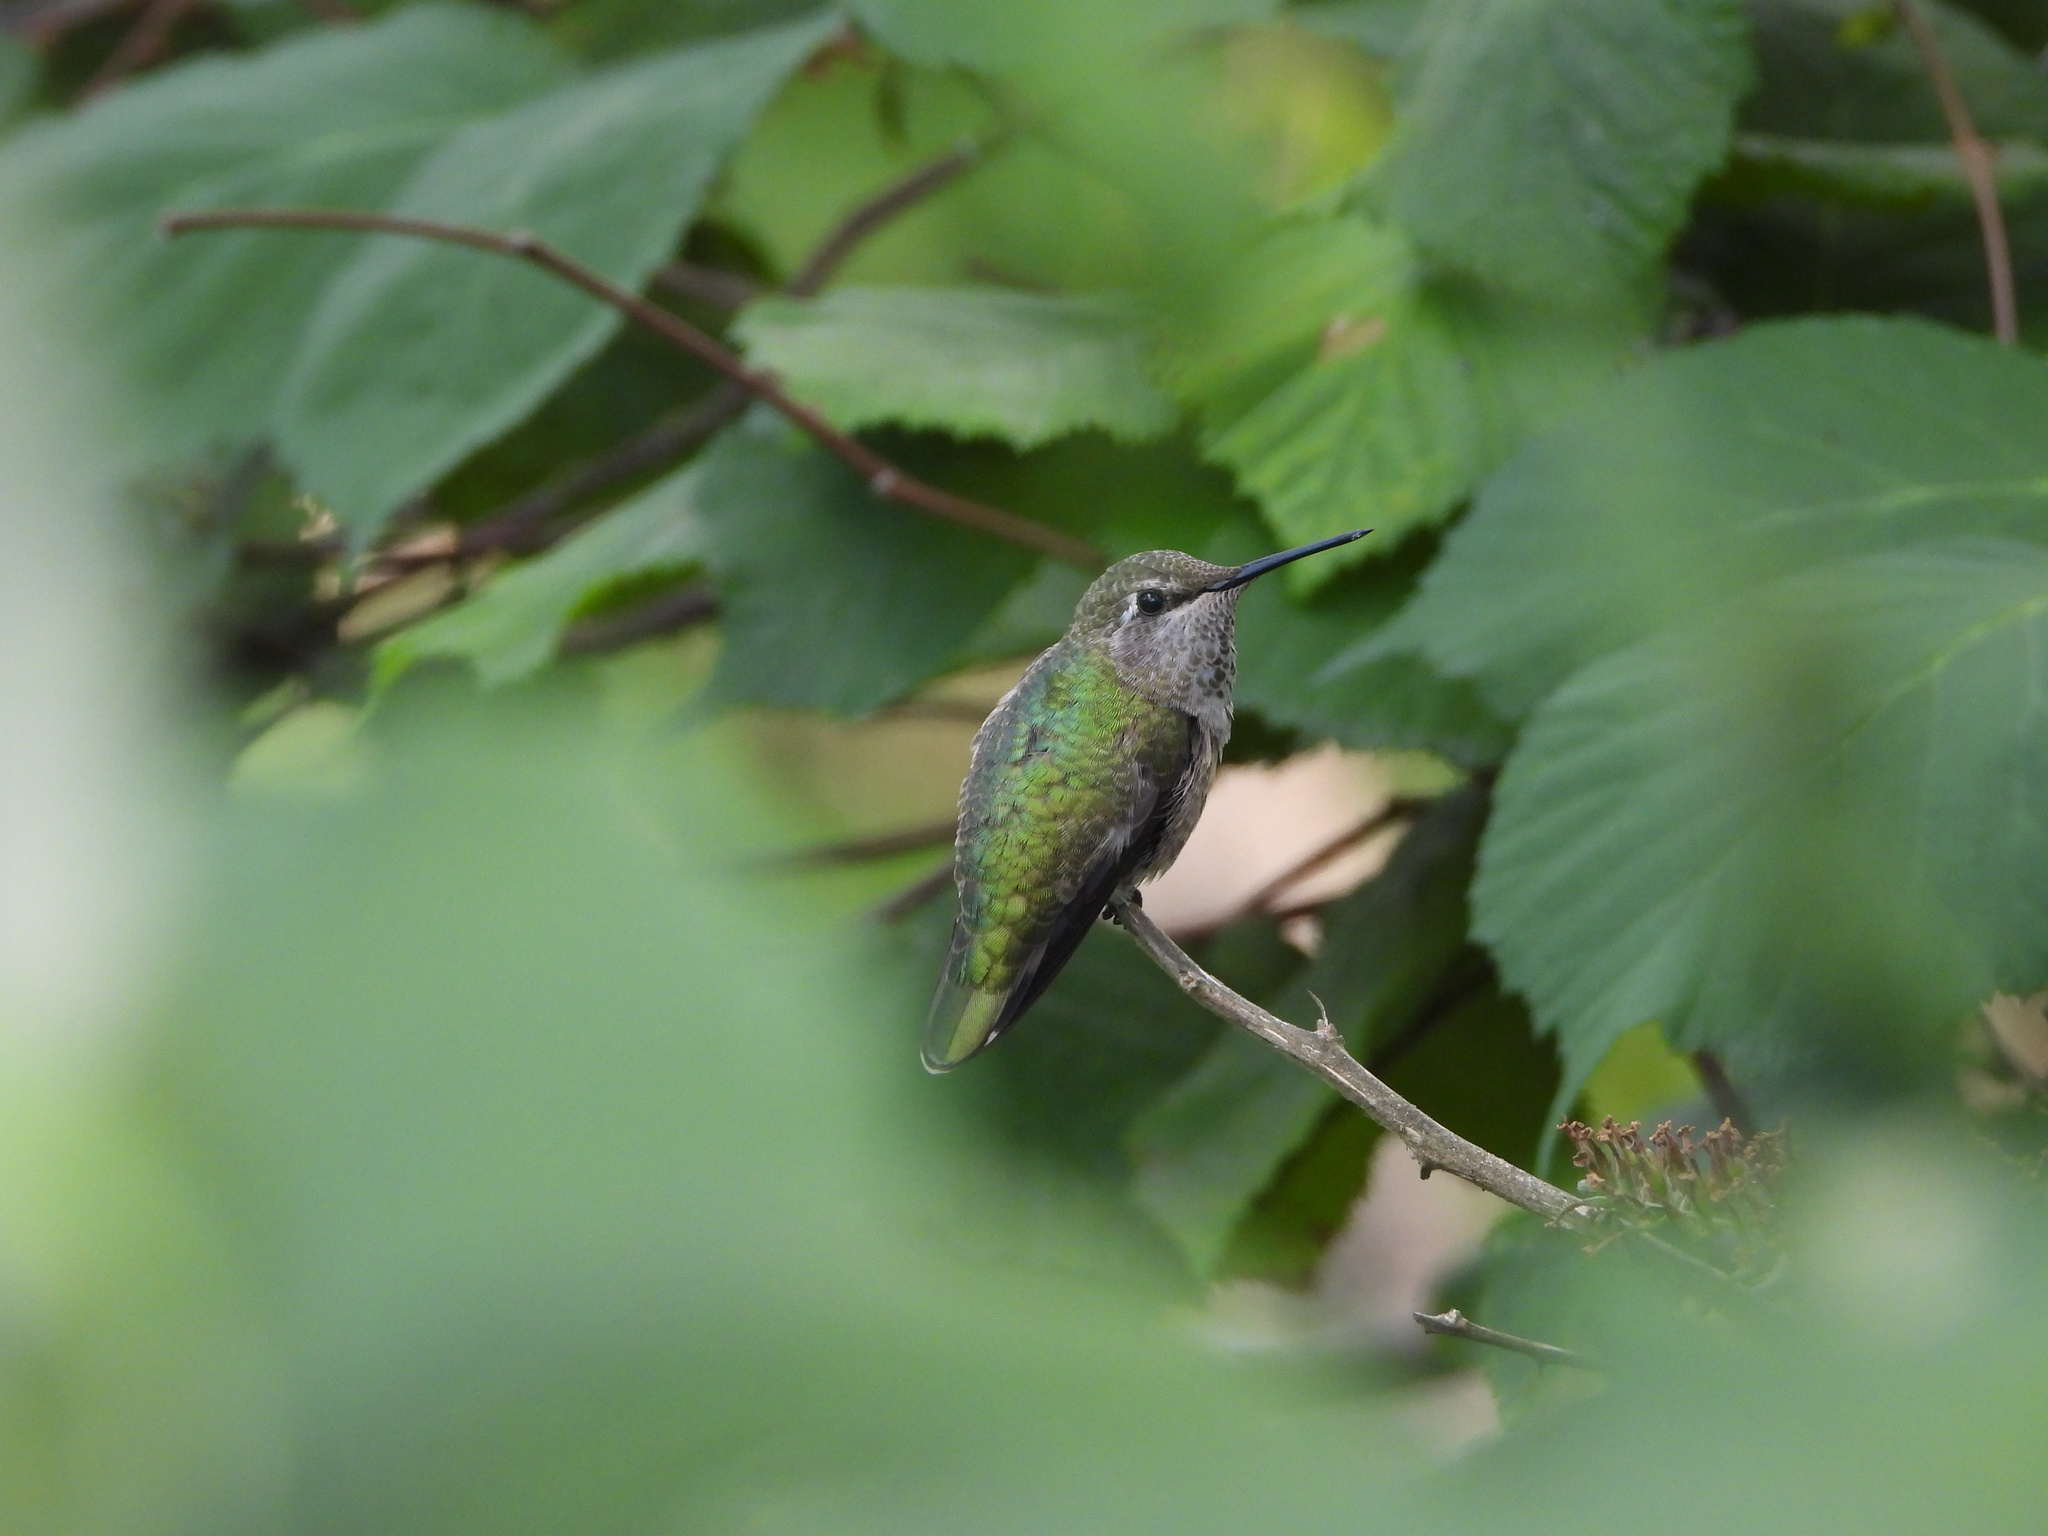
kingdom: Animalia
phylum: Chordata
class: Aves
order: Apodiformes
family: Trochilidae
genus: Calypte
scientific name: Calypte anna
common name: Anna's hummingbird
